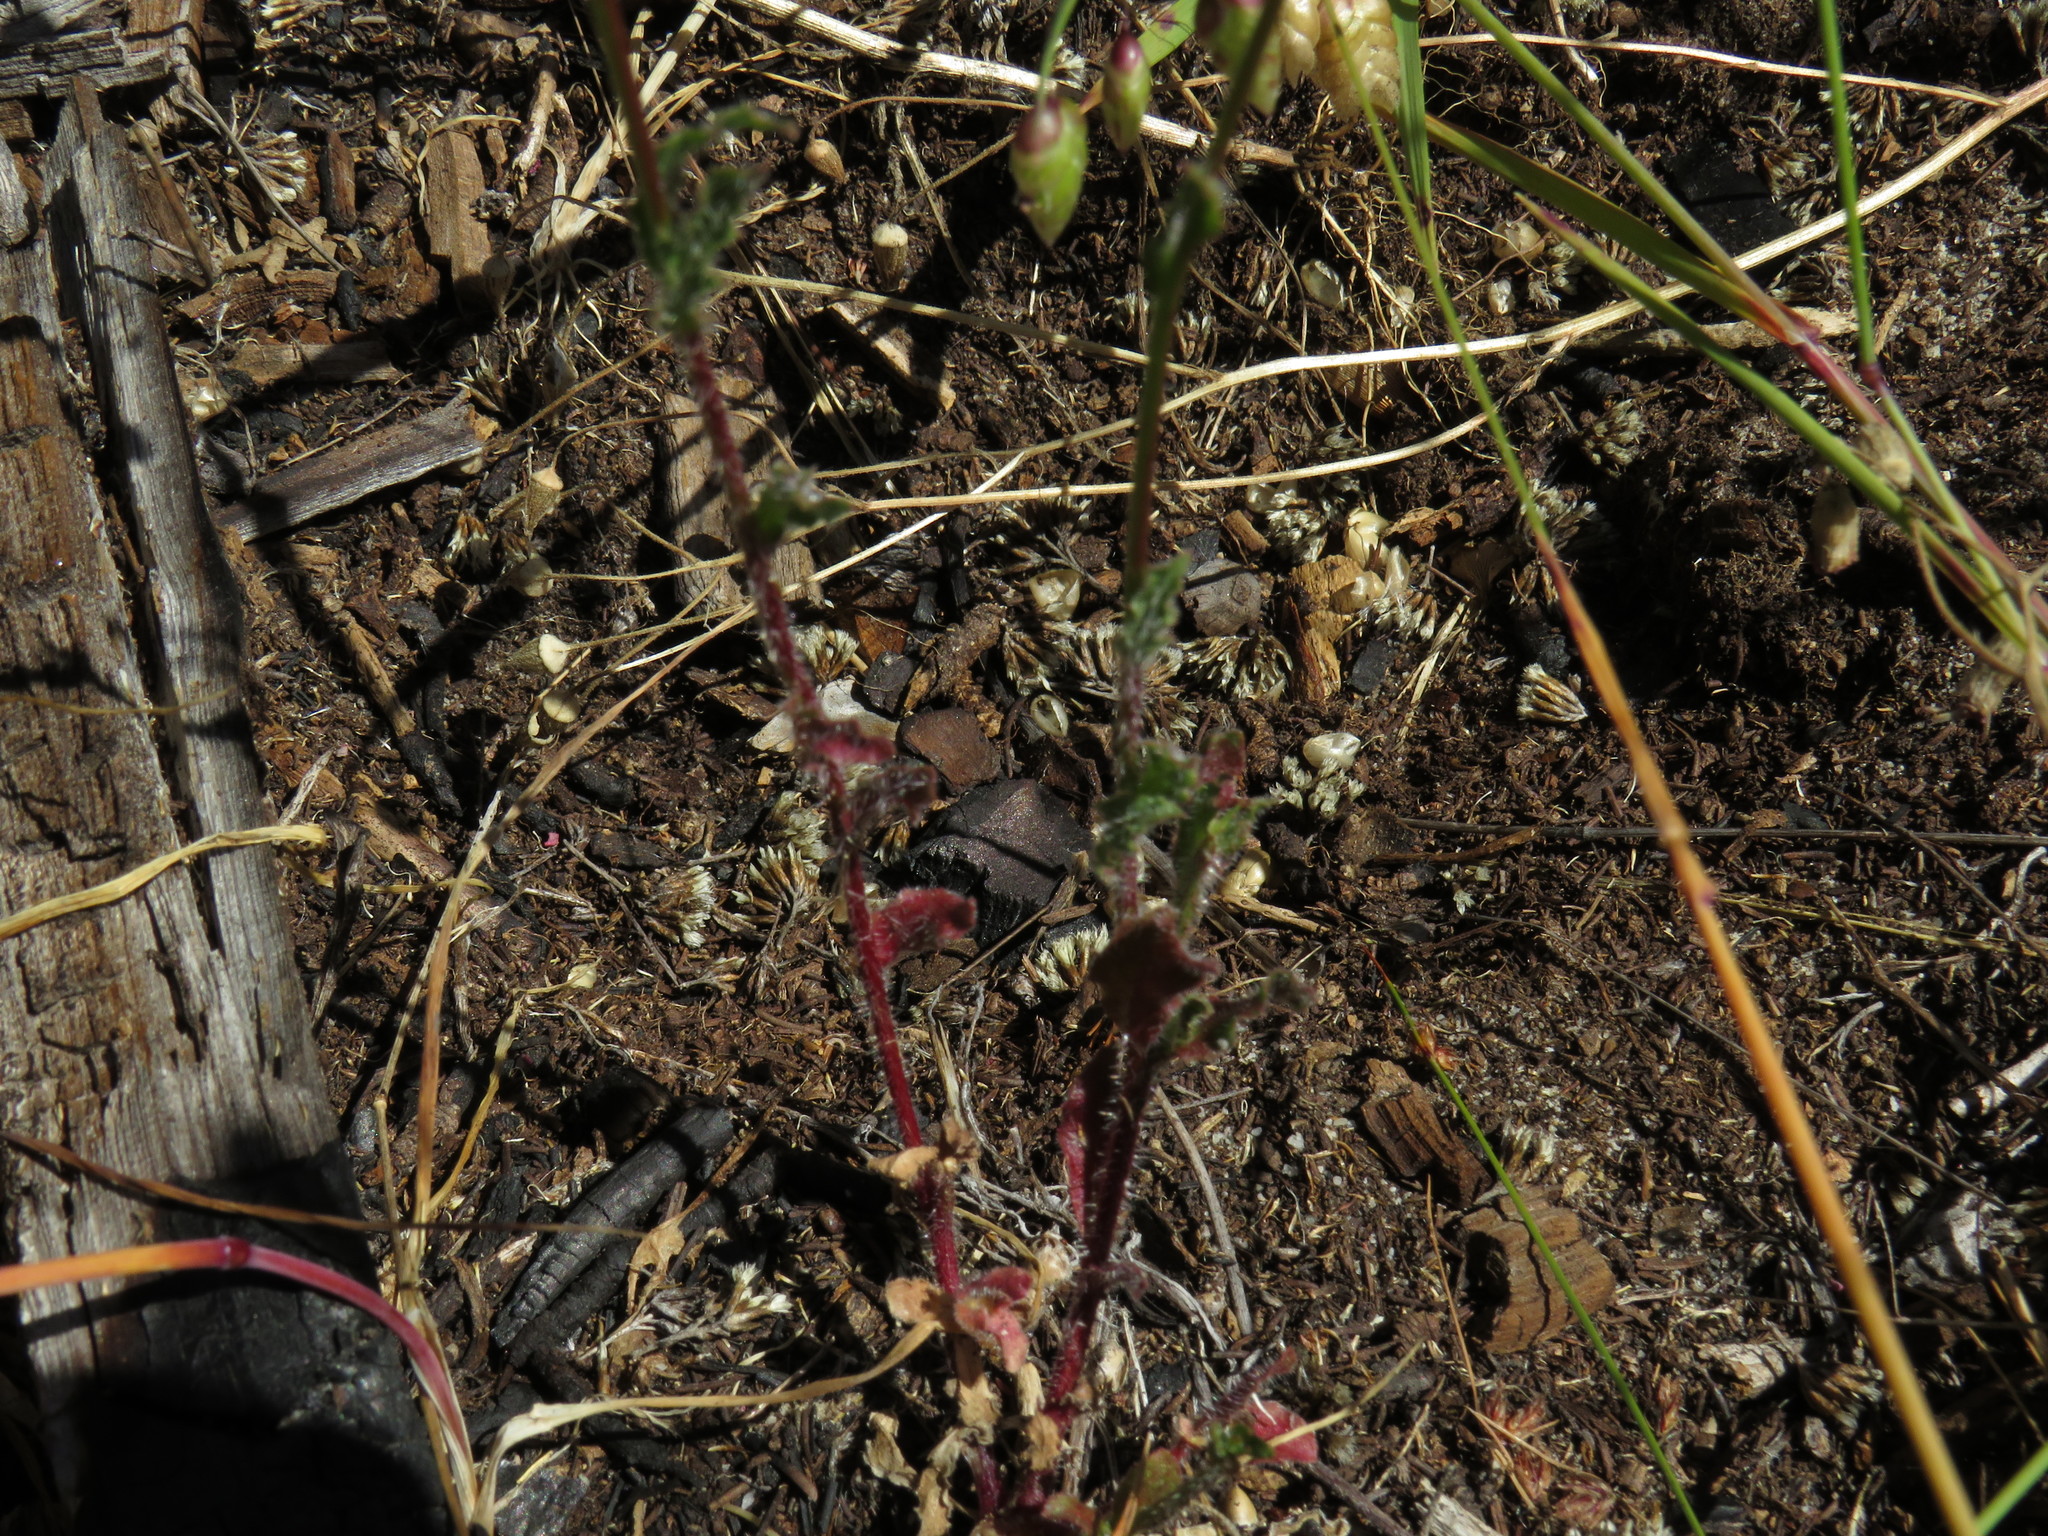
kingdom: Plantae
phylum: Tracheophyta
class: Magnoliopsida
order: Asterales
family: Campanulaceae
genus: Wahlenbergia
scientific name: Wahlenbergia capensis
